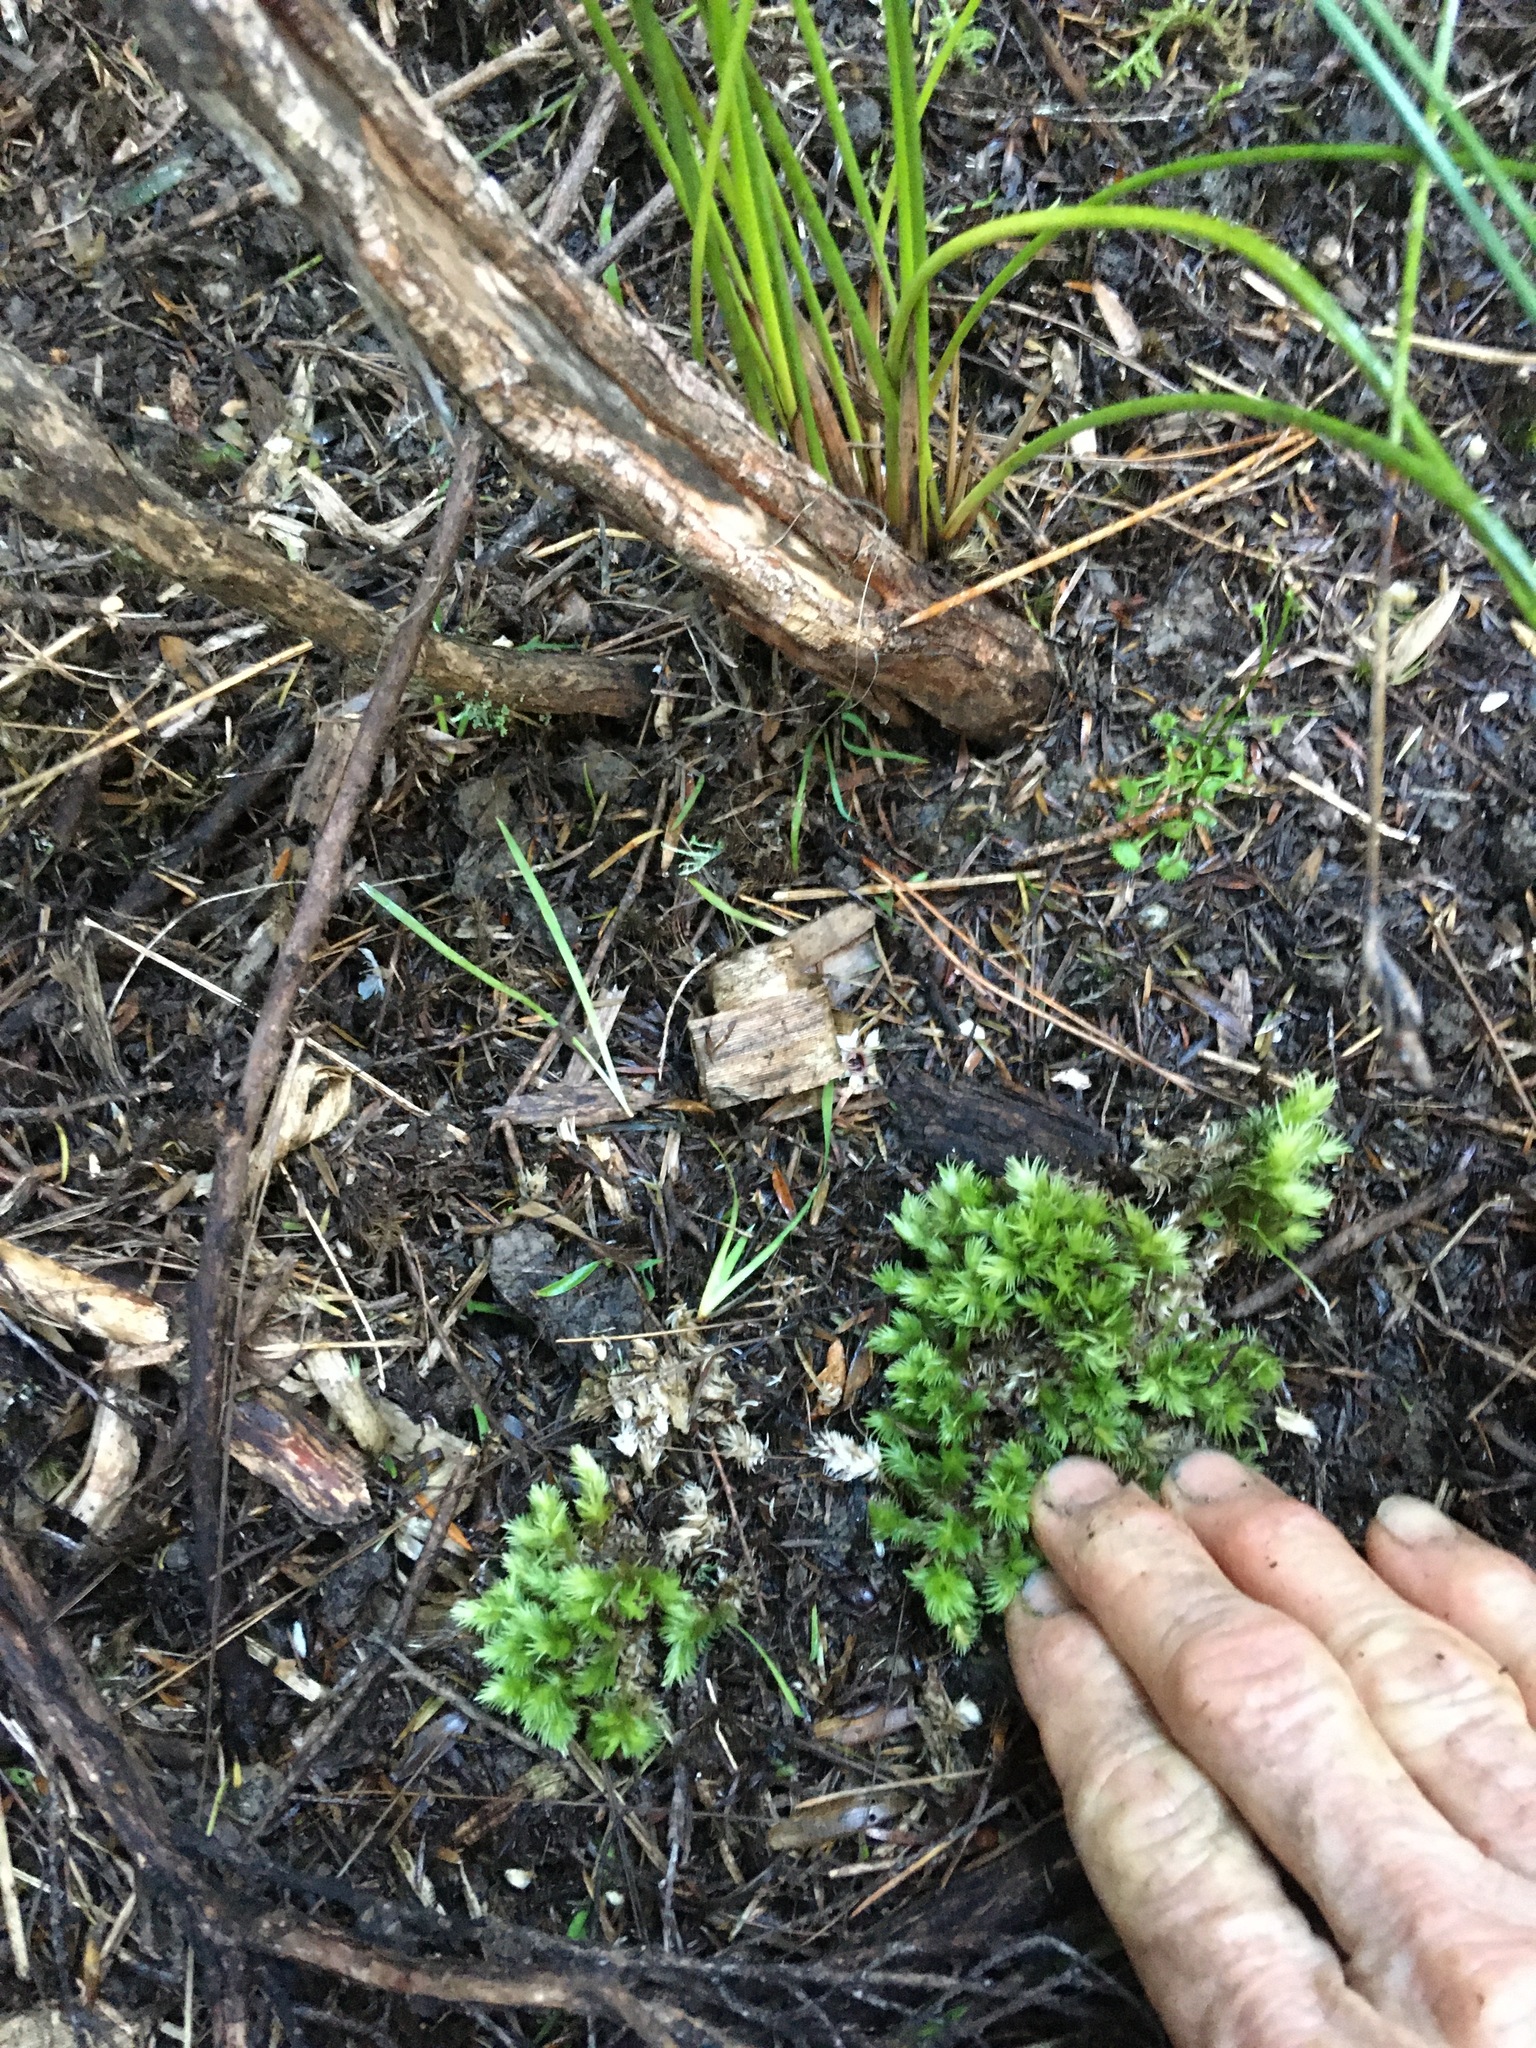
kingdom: Plantae
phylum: Bryophyta
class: Bryopsida
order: Dicranales
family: Leucobryaceae
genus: Leucobryum
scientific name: Leucobryum javense
